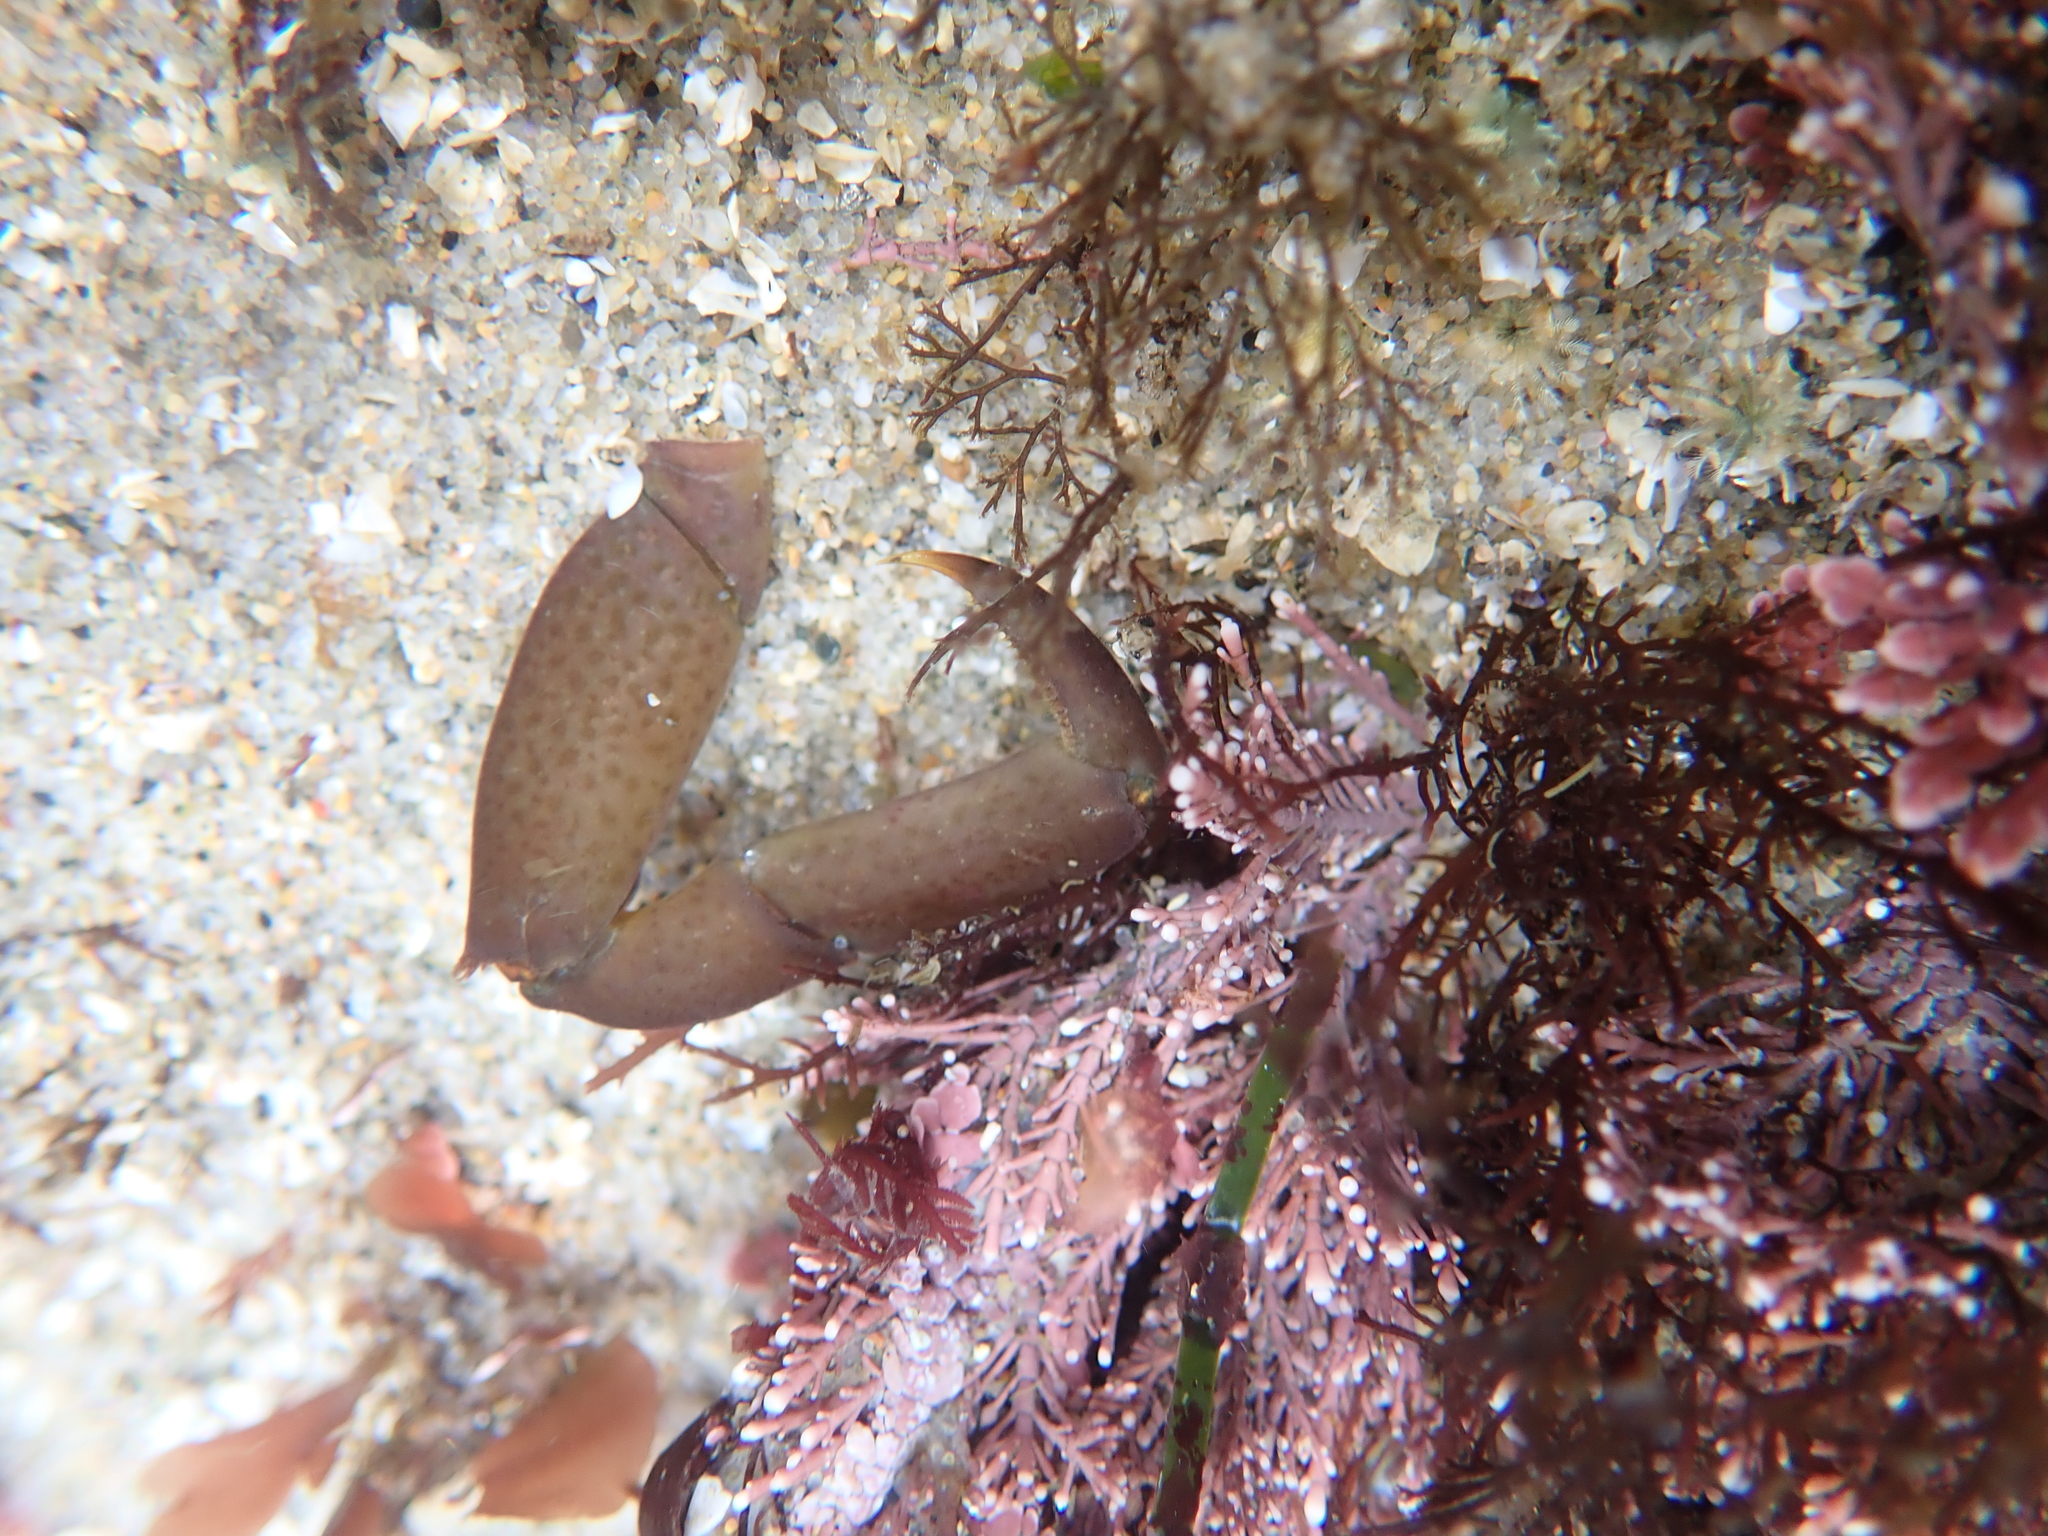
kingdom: Animalia
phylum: Arthropoda
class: Malacostraca
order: Decapoda
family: Epialtidae
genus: Pugettia
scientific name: Pugettia producta
